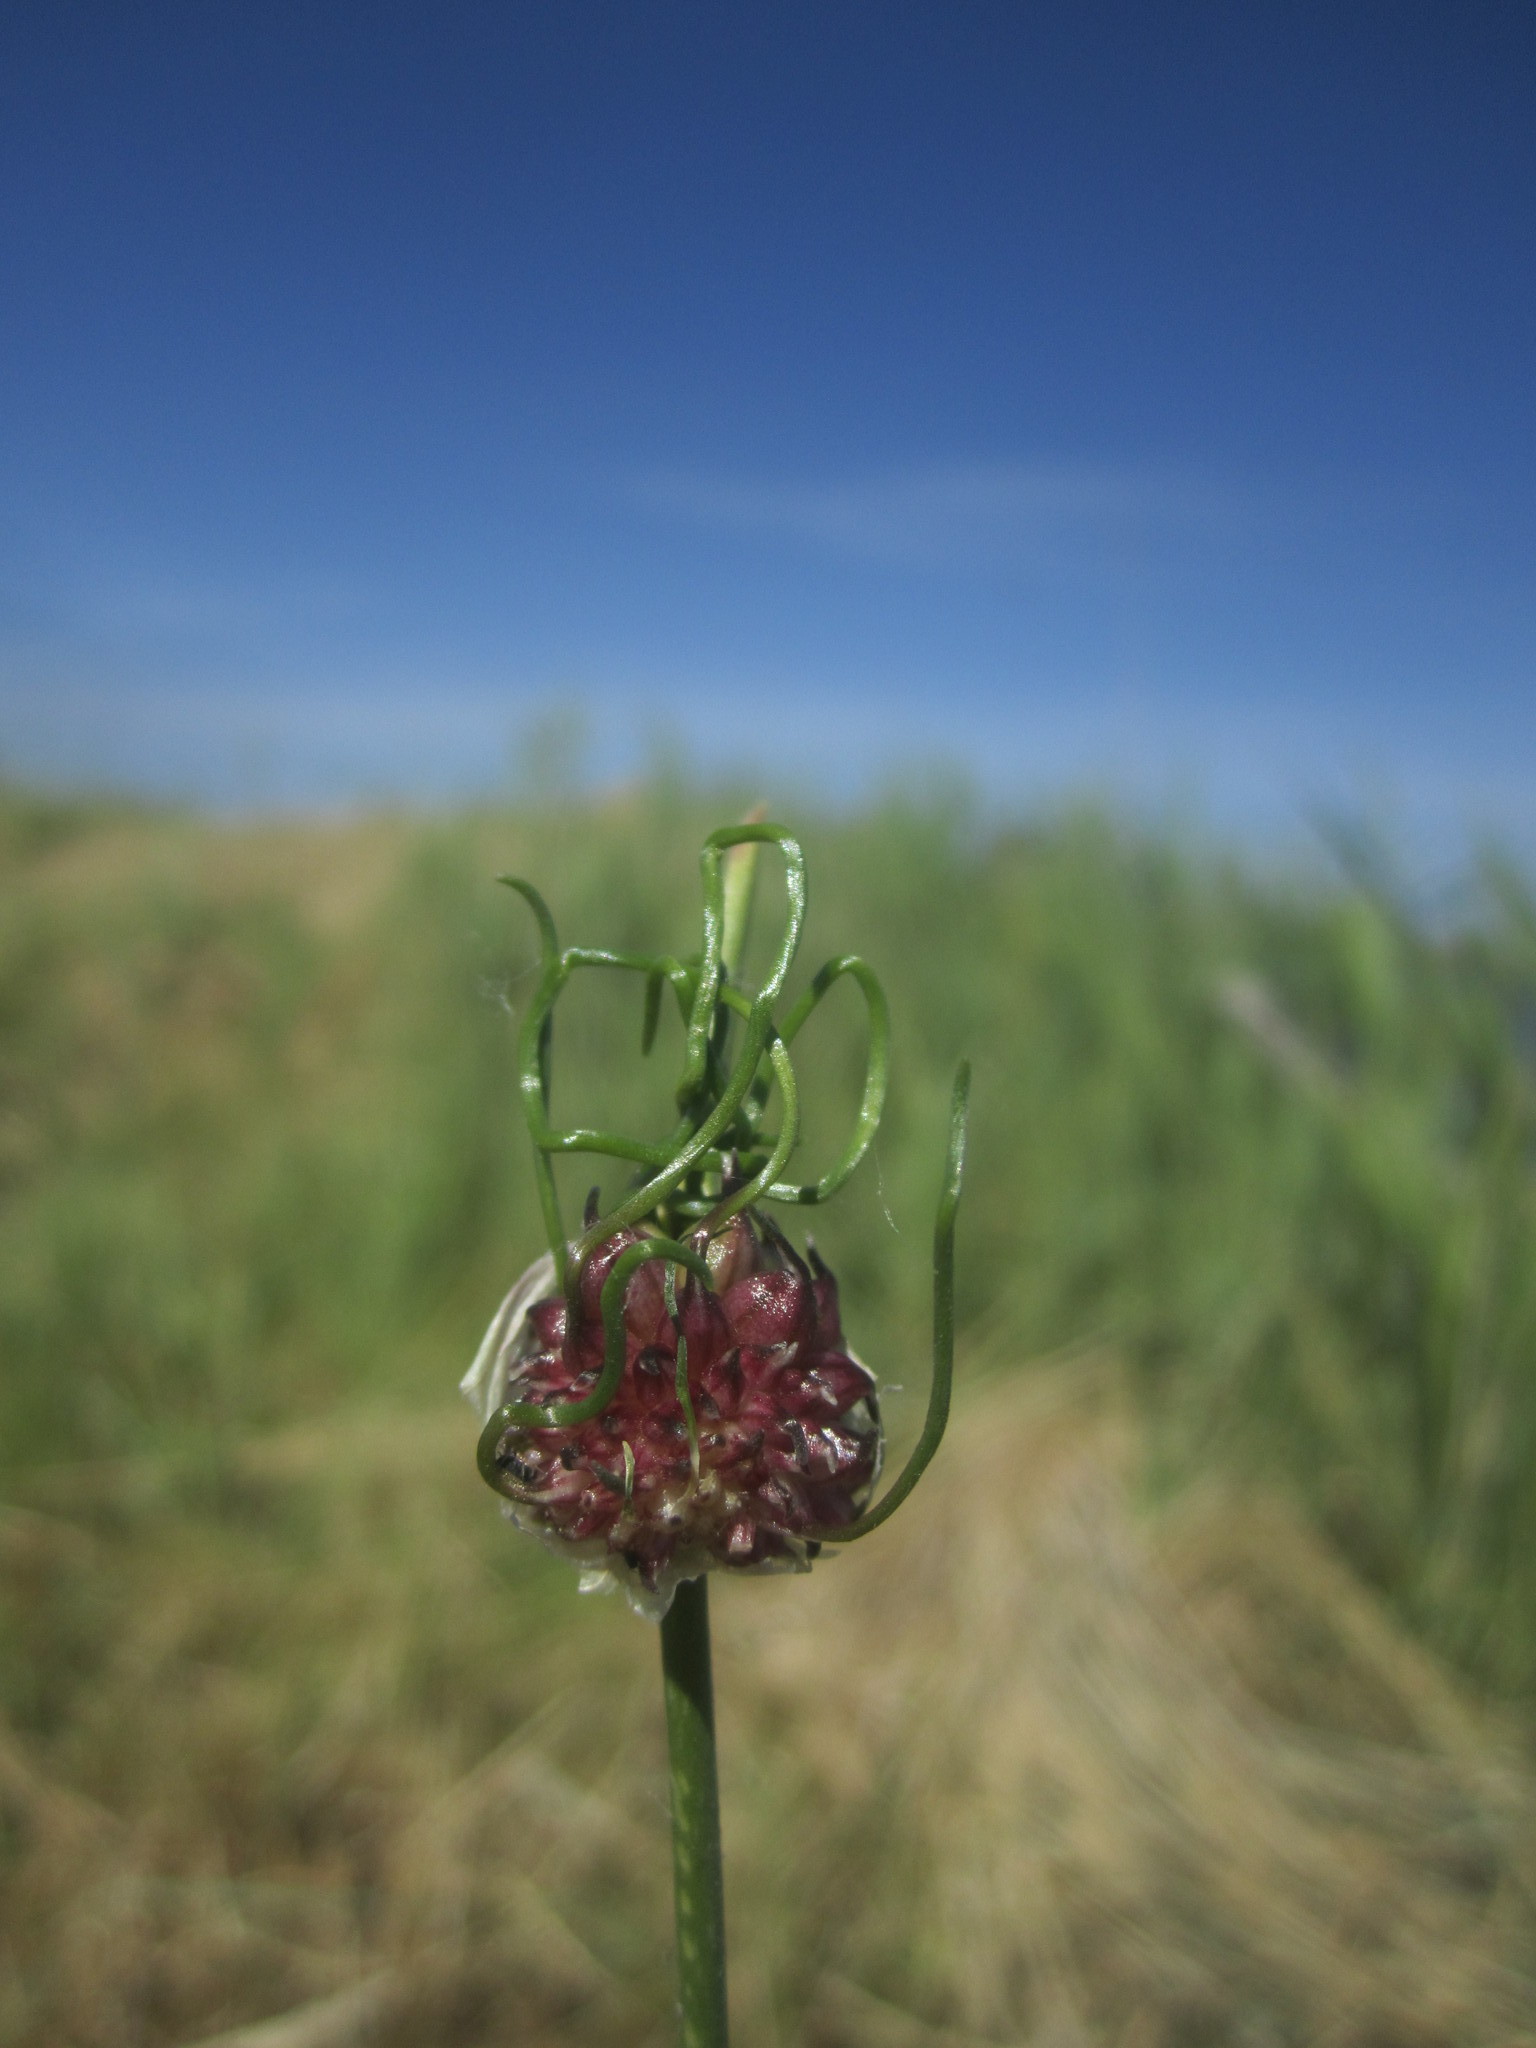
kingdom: Plantae
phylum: Tracheophyta
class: Liliopsida
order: Asparagales
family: Amaryllidaceae
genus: Allium
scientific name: Allium vineale
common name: Crow garlic
